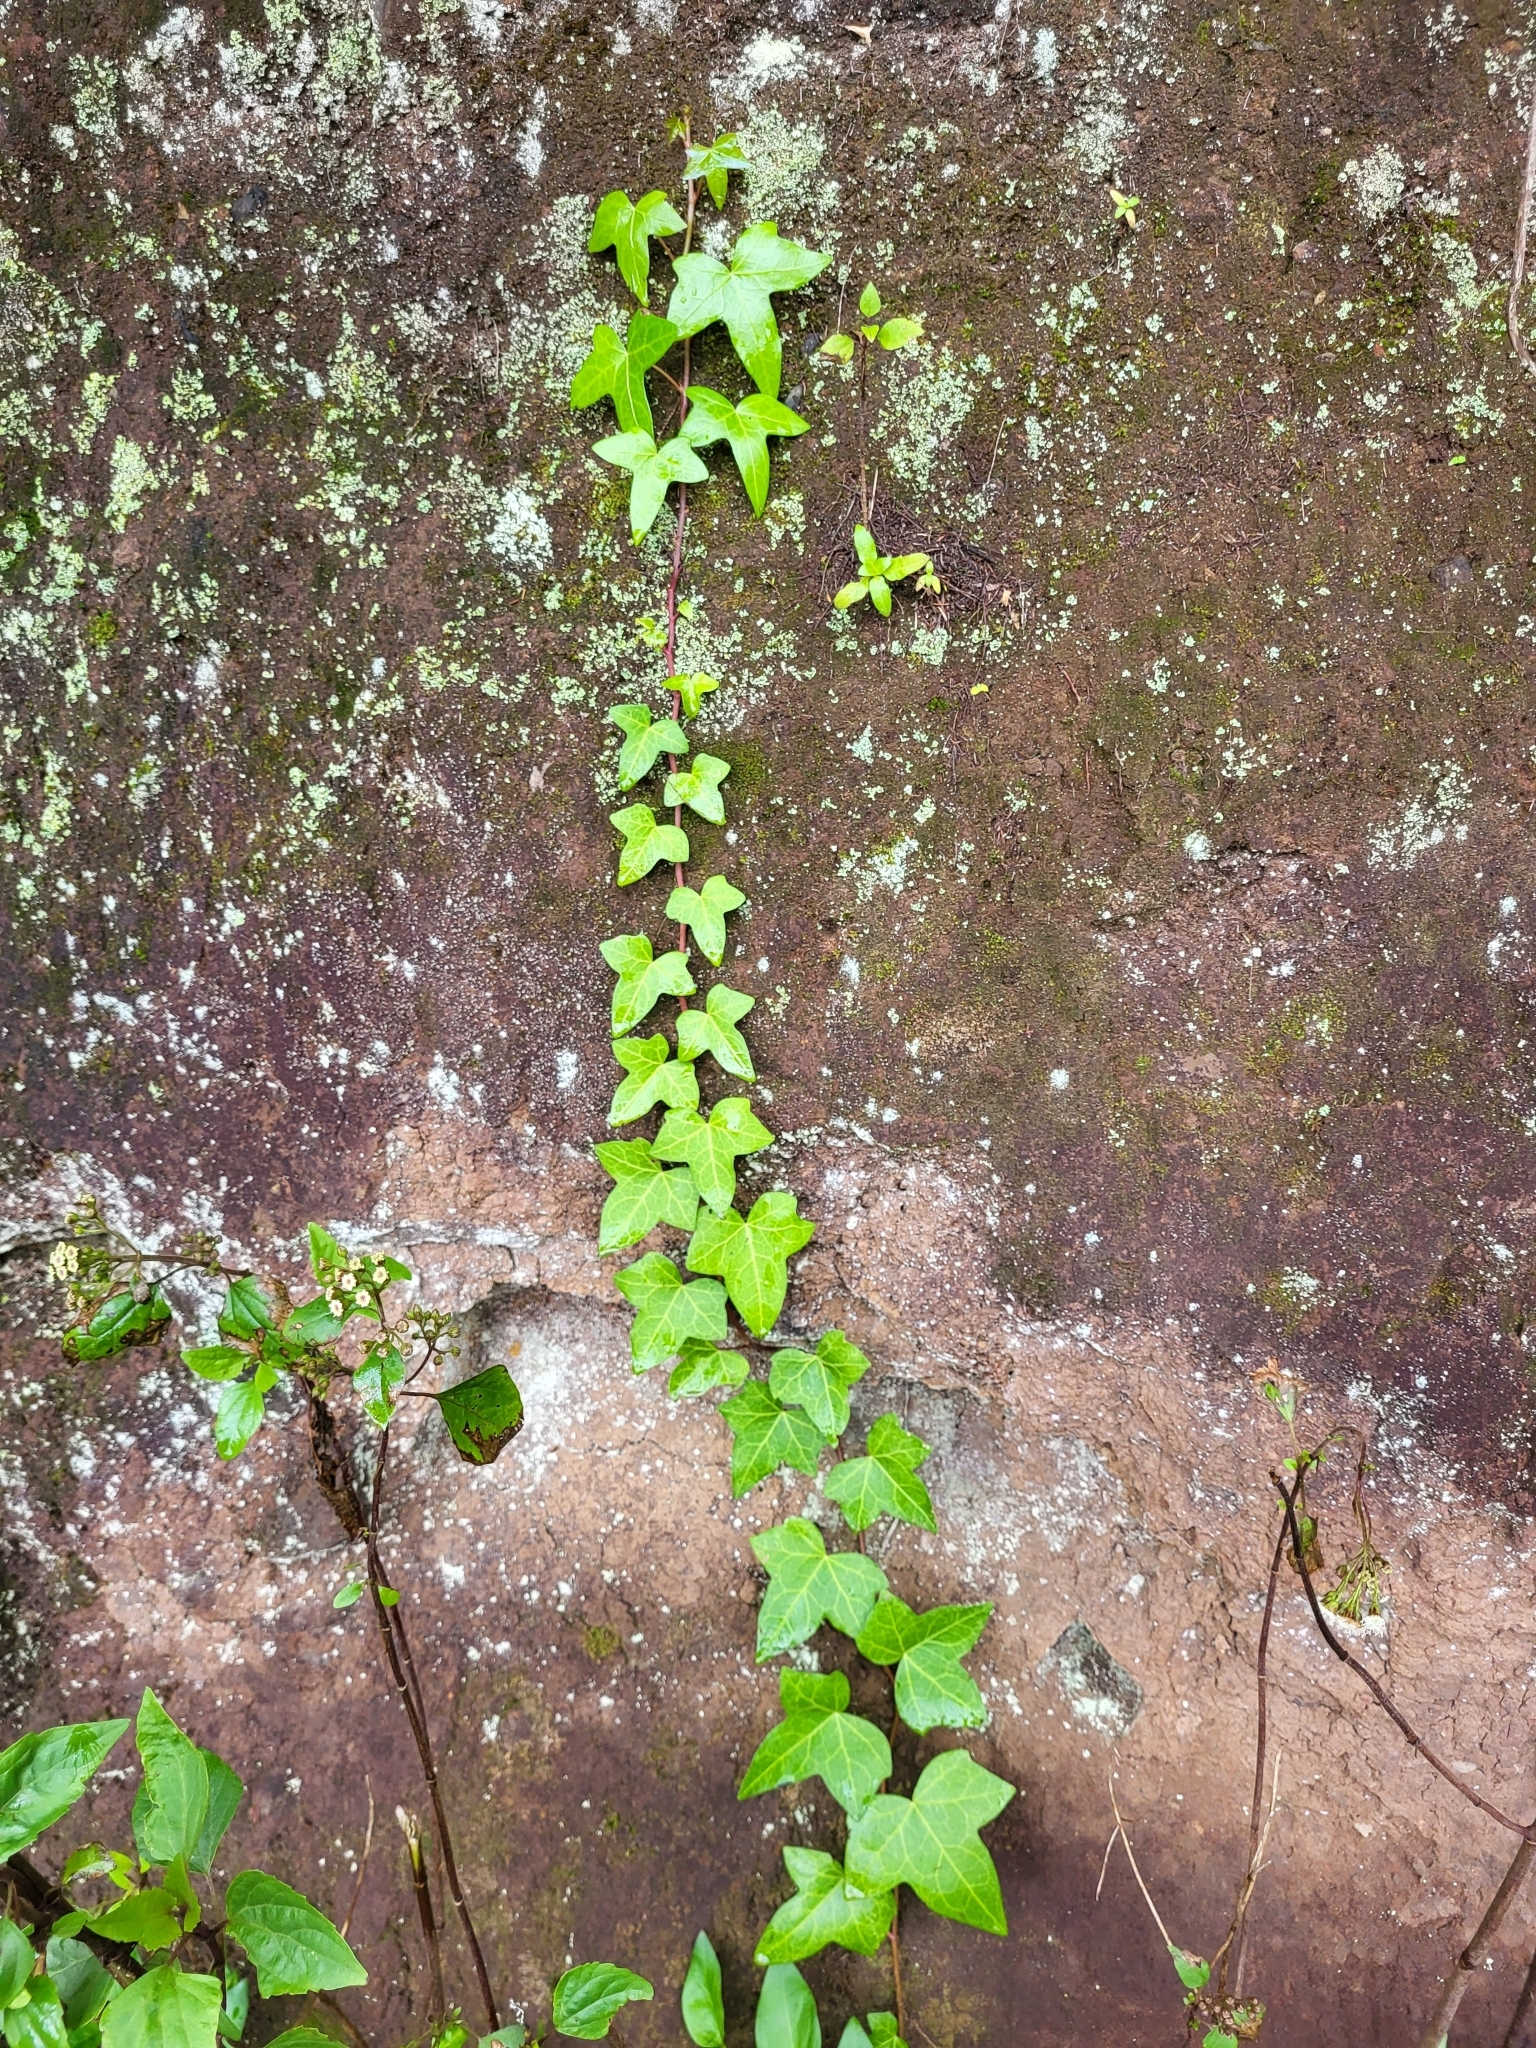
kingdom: Plantae
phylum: Tracheophyta
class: Magnoliopsida
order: Apiales
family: Araliaceae
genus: Hedera
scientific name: Hedera canariensis
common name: Madeira ivy
